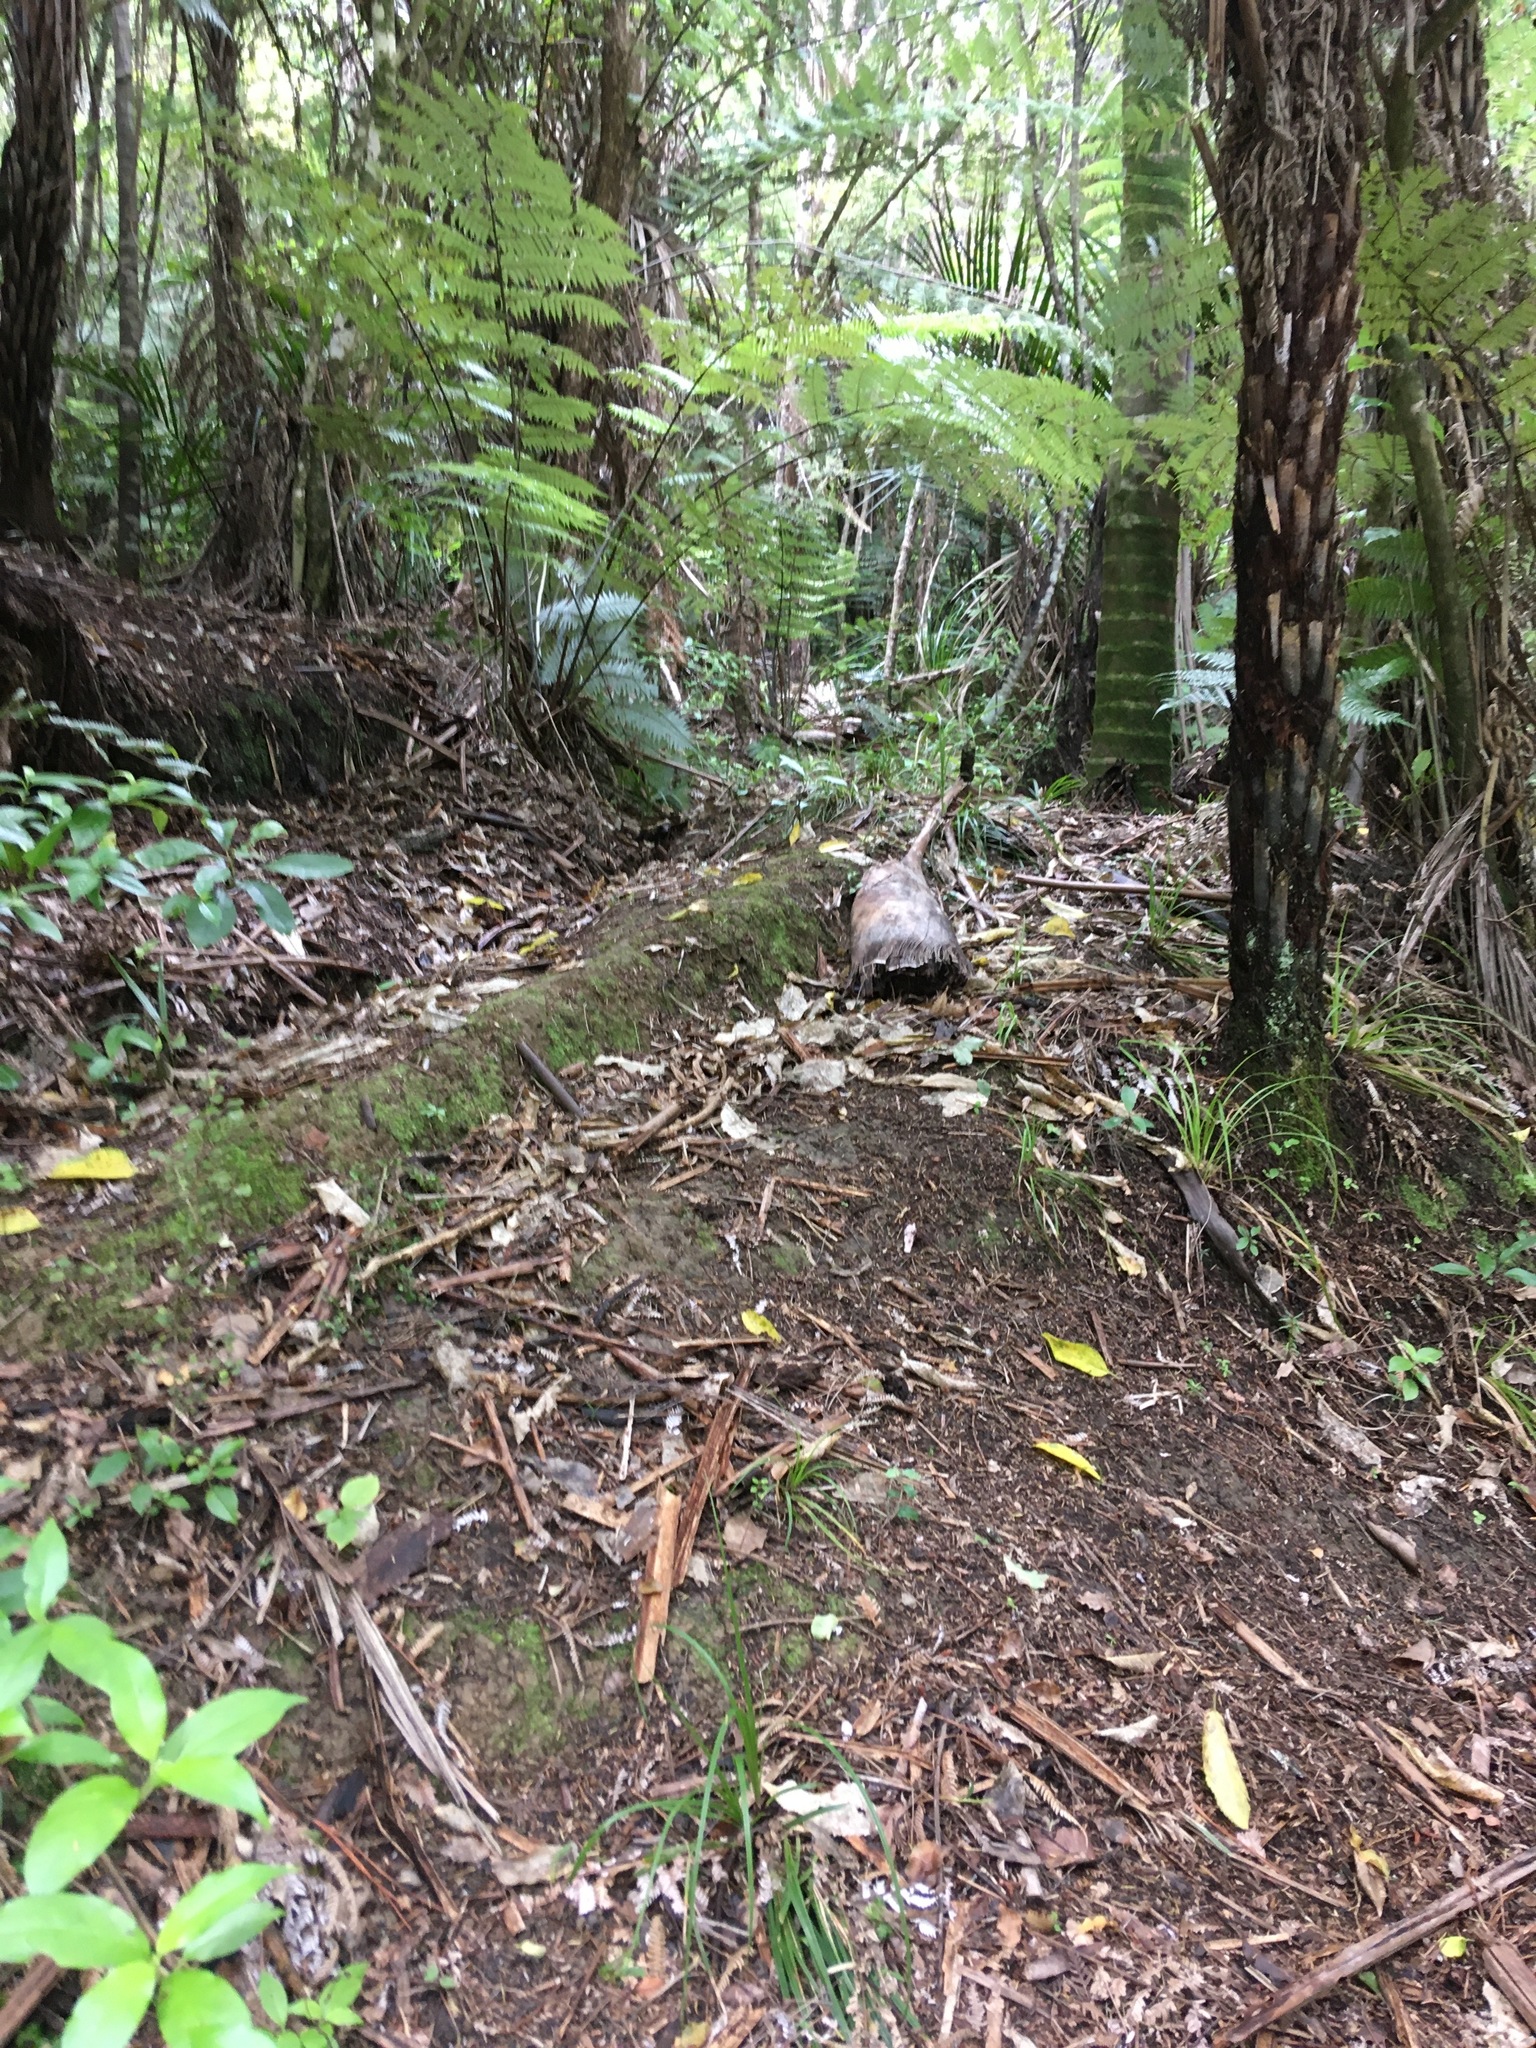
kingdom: Plantae
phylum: Tracheophyta
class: Liliopsida
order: Arecales
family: Arecaceae
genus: Rhopalostylis
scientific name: Rhopalostylis sapida
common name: Feather-duster palm
